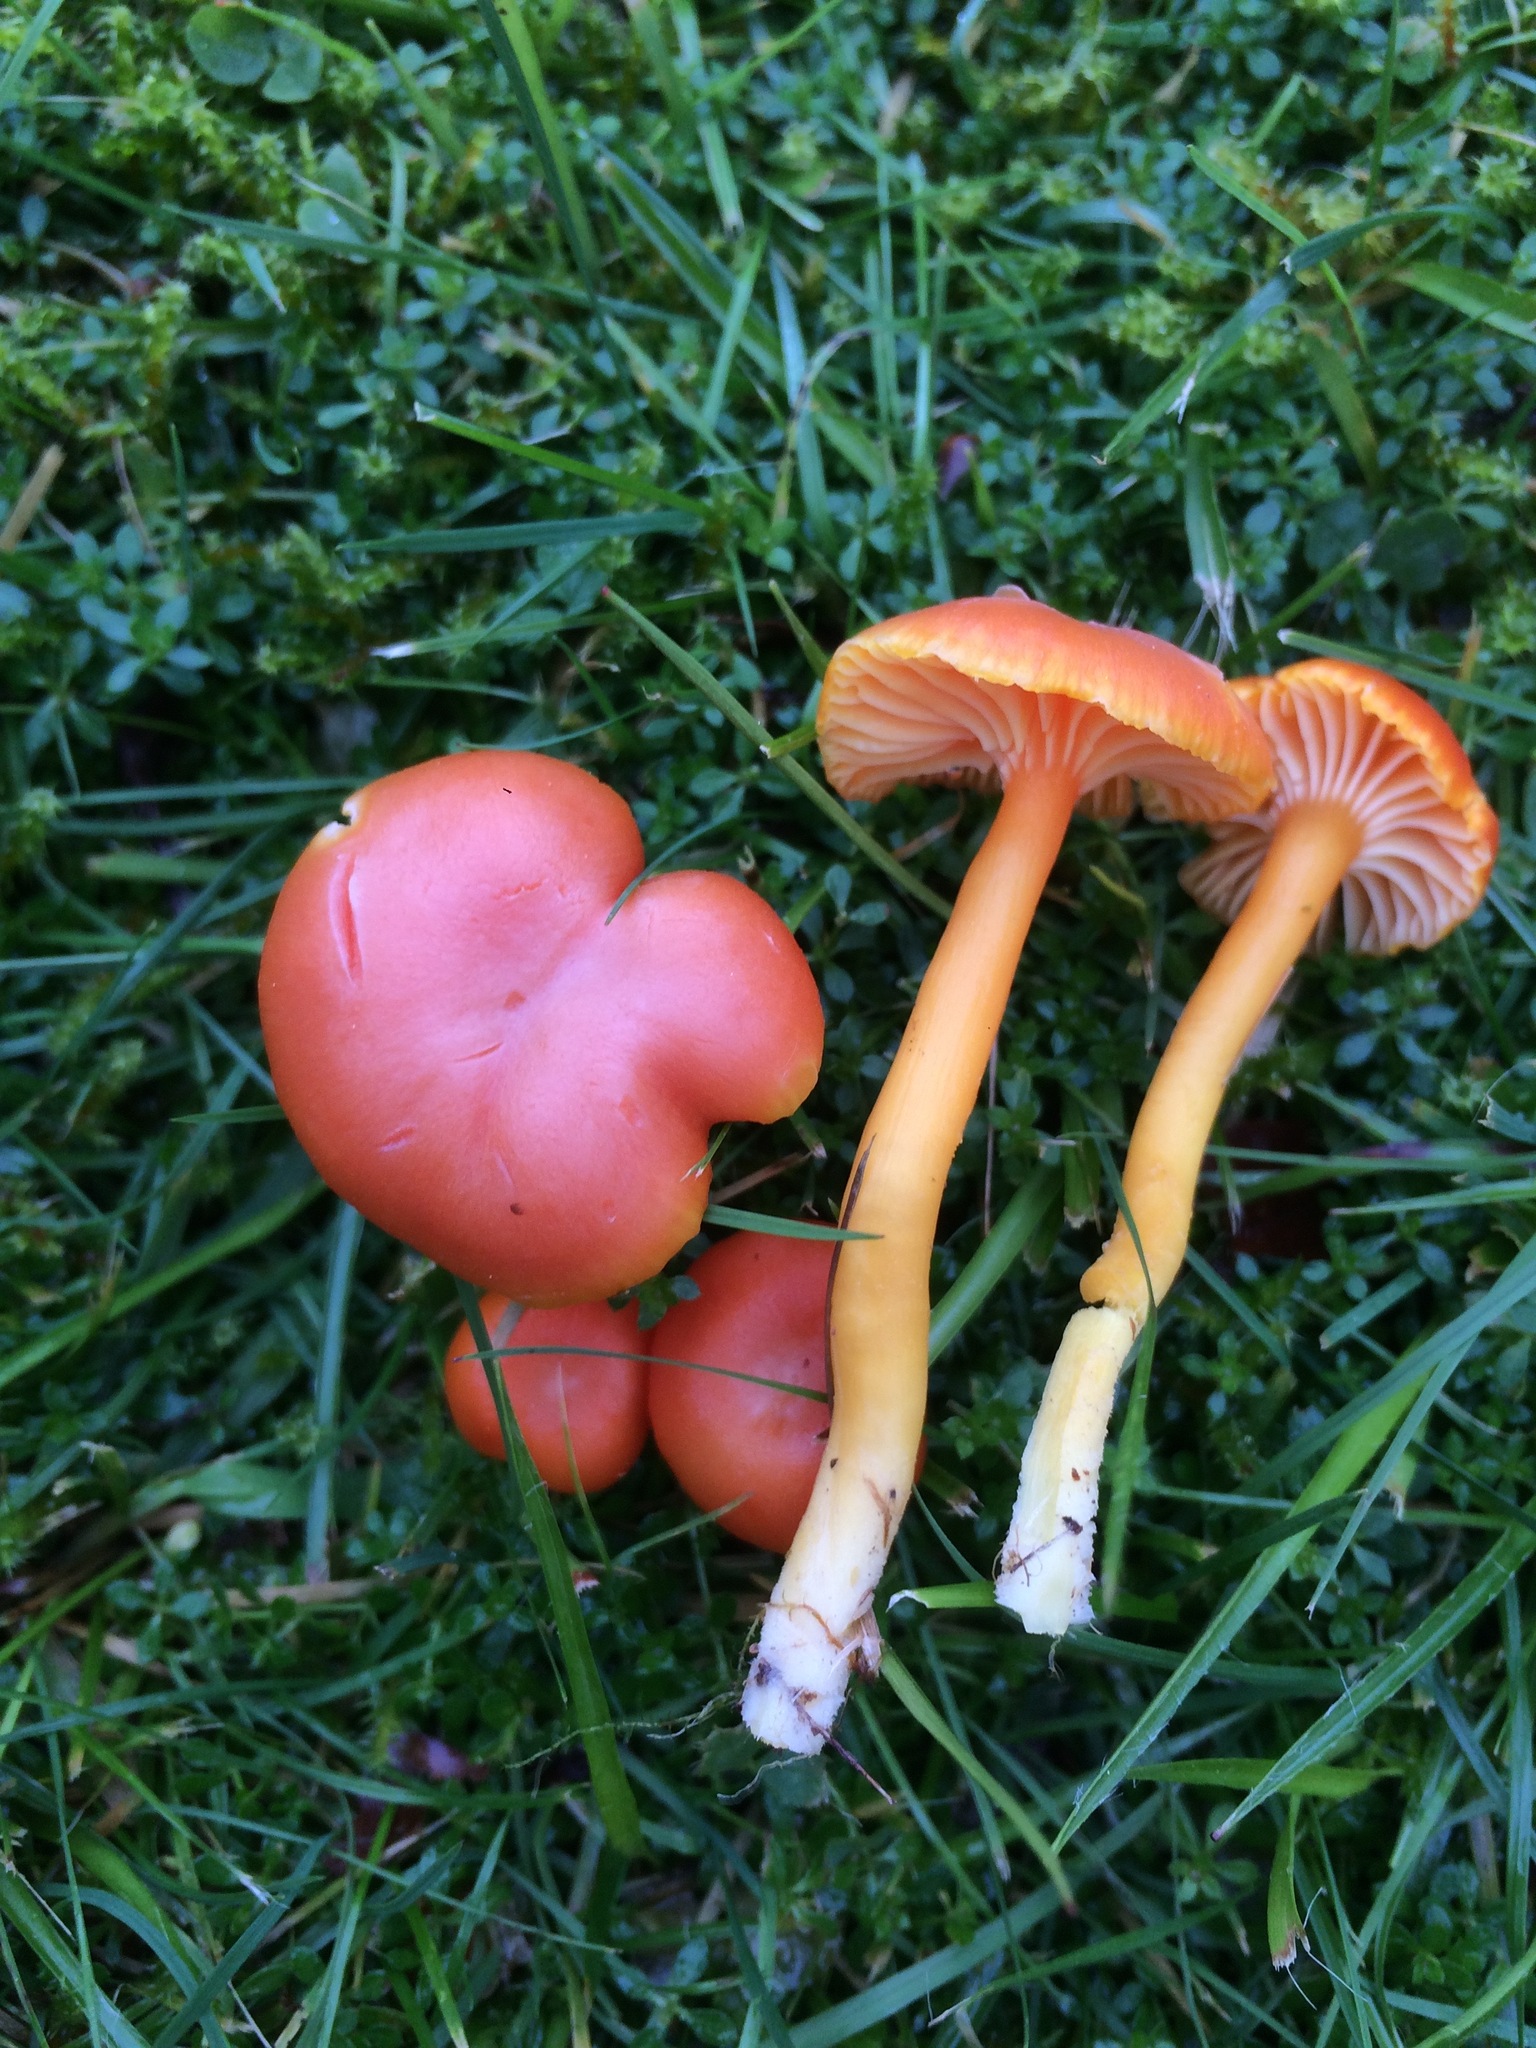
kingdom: Fungi
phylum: Basidiomycota
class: Agaricomycetes
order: Agaricales
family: Hygrophoraceae
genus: Hygrocybe
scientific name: Hygrocybe reidii
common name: Honey waxcap
